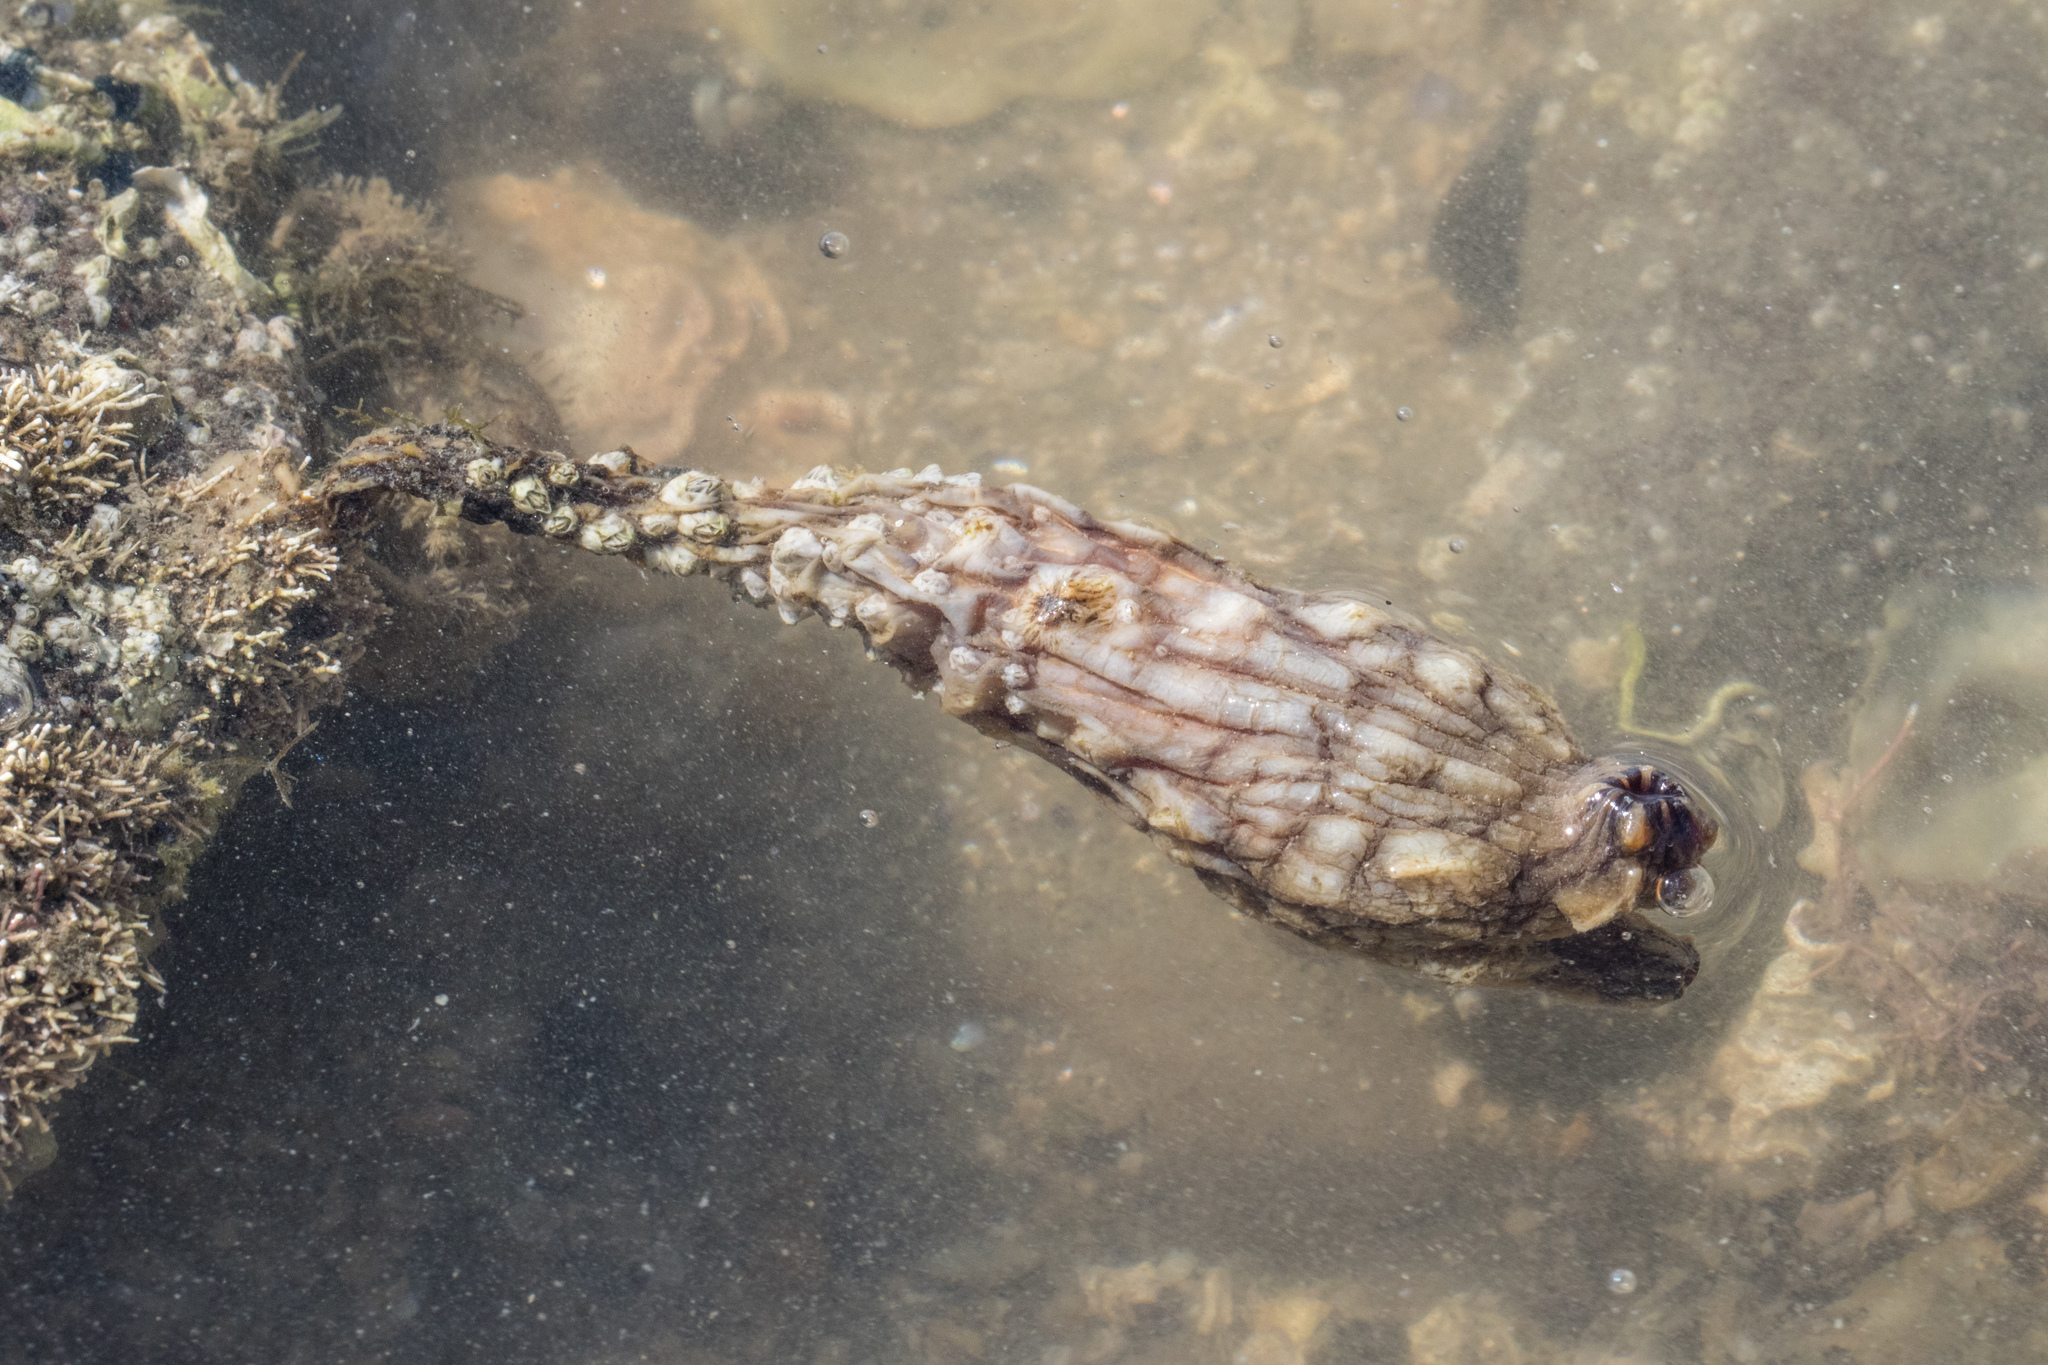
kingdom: Animalia
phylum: Chordata
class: Ascidiacea
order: Stolidobranchia
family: Styelidae
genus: Styela
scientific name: Styela clava
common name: Leathery sea squirt
